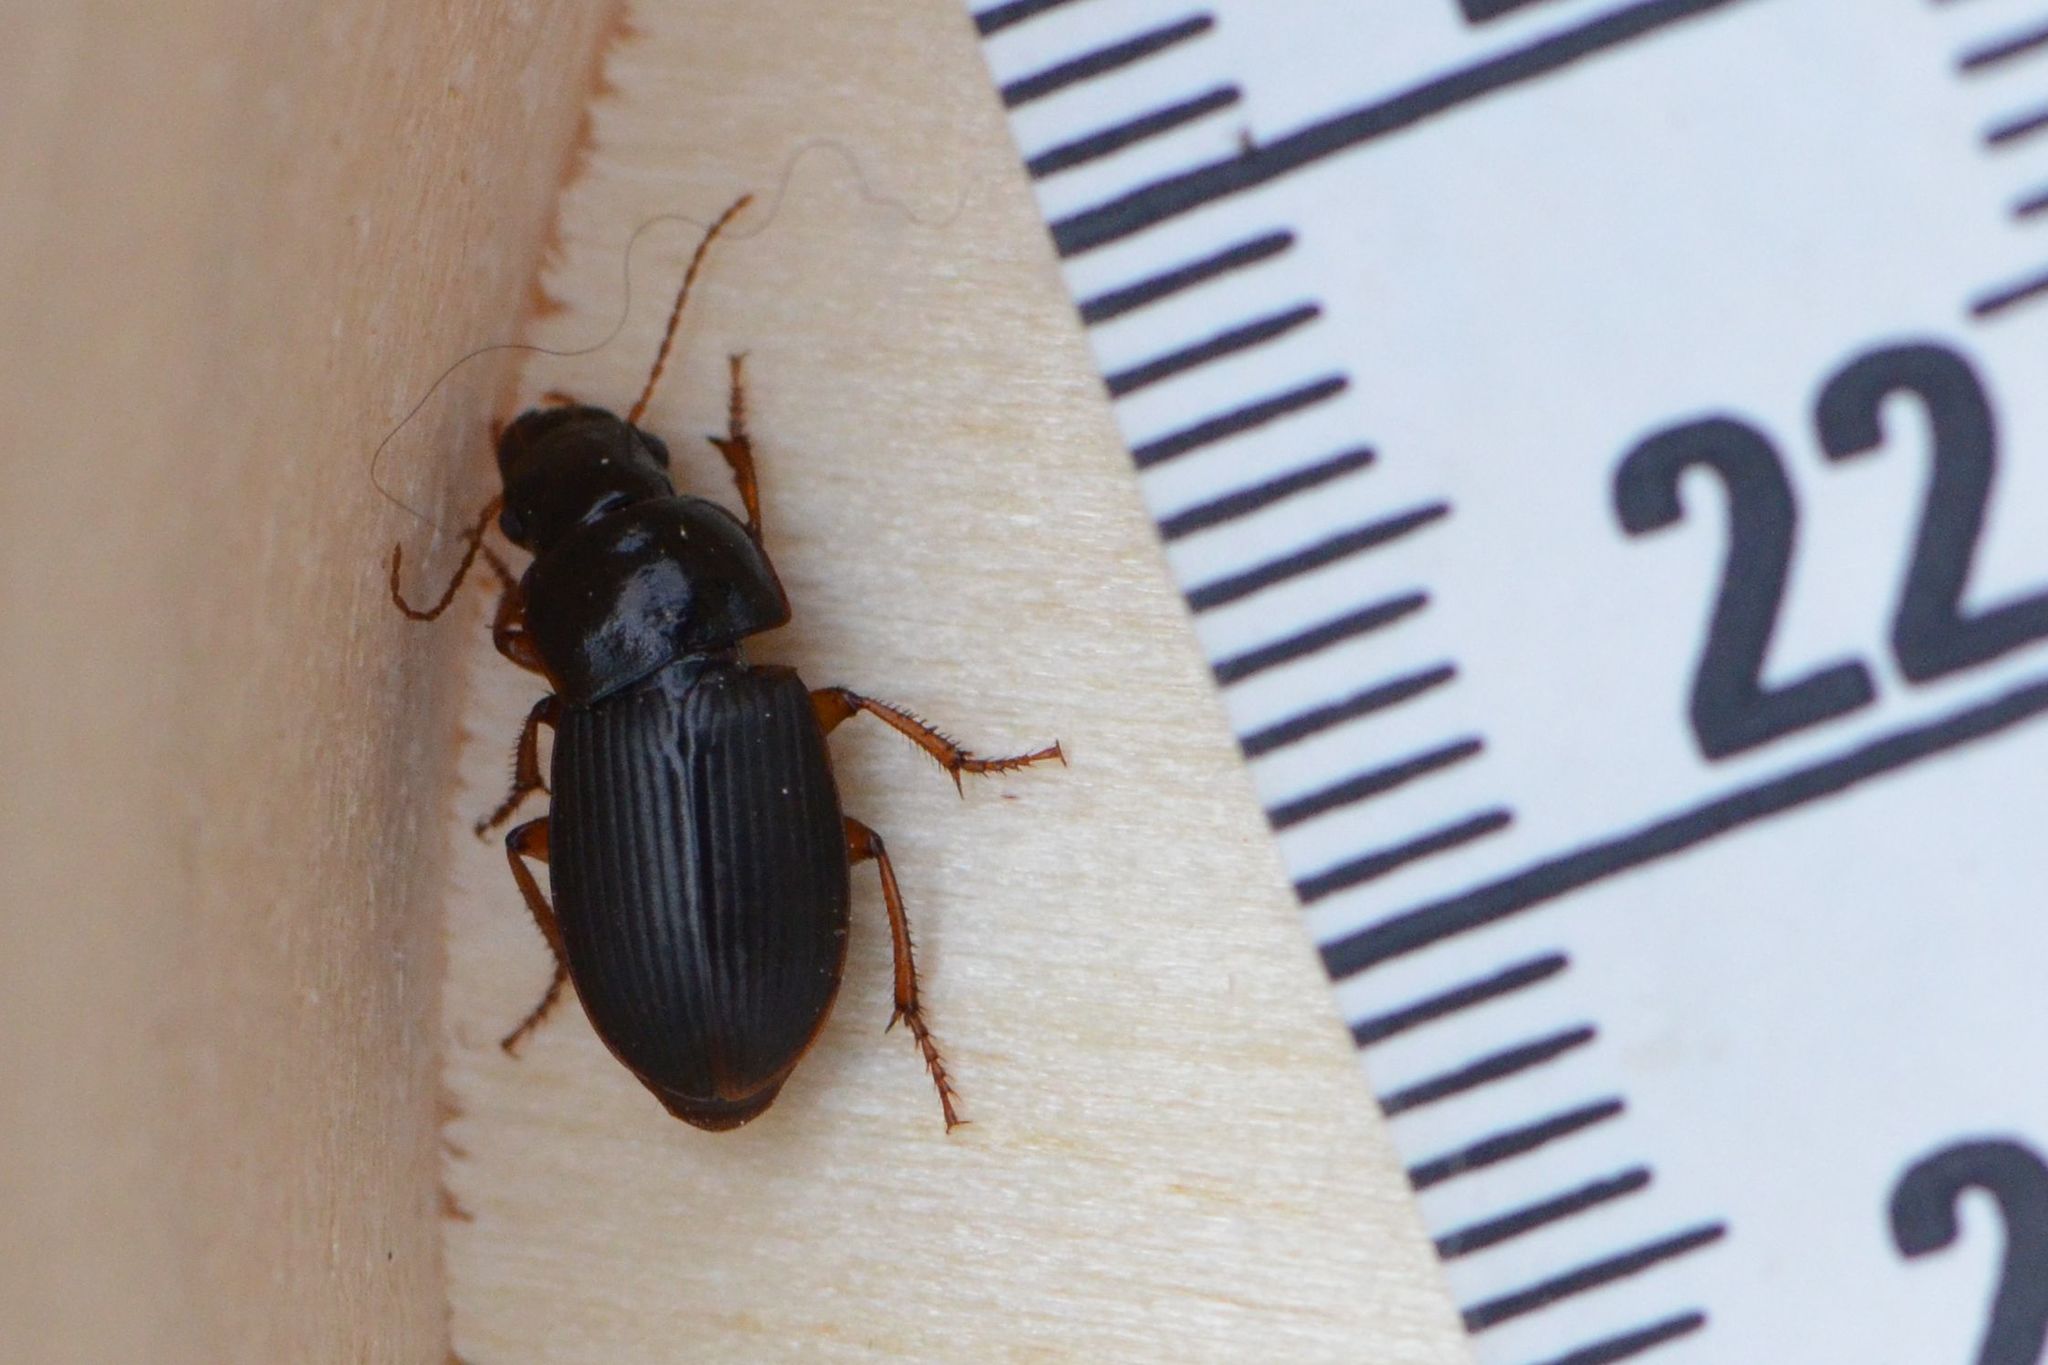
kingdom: Animalia
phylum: Arthropoda
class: Insecta
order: Coleoptera
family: Carabidae
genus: Harpalus
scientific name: Harpalus rubripes
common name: Red-legged harp ground beetle
